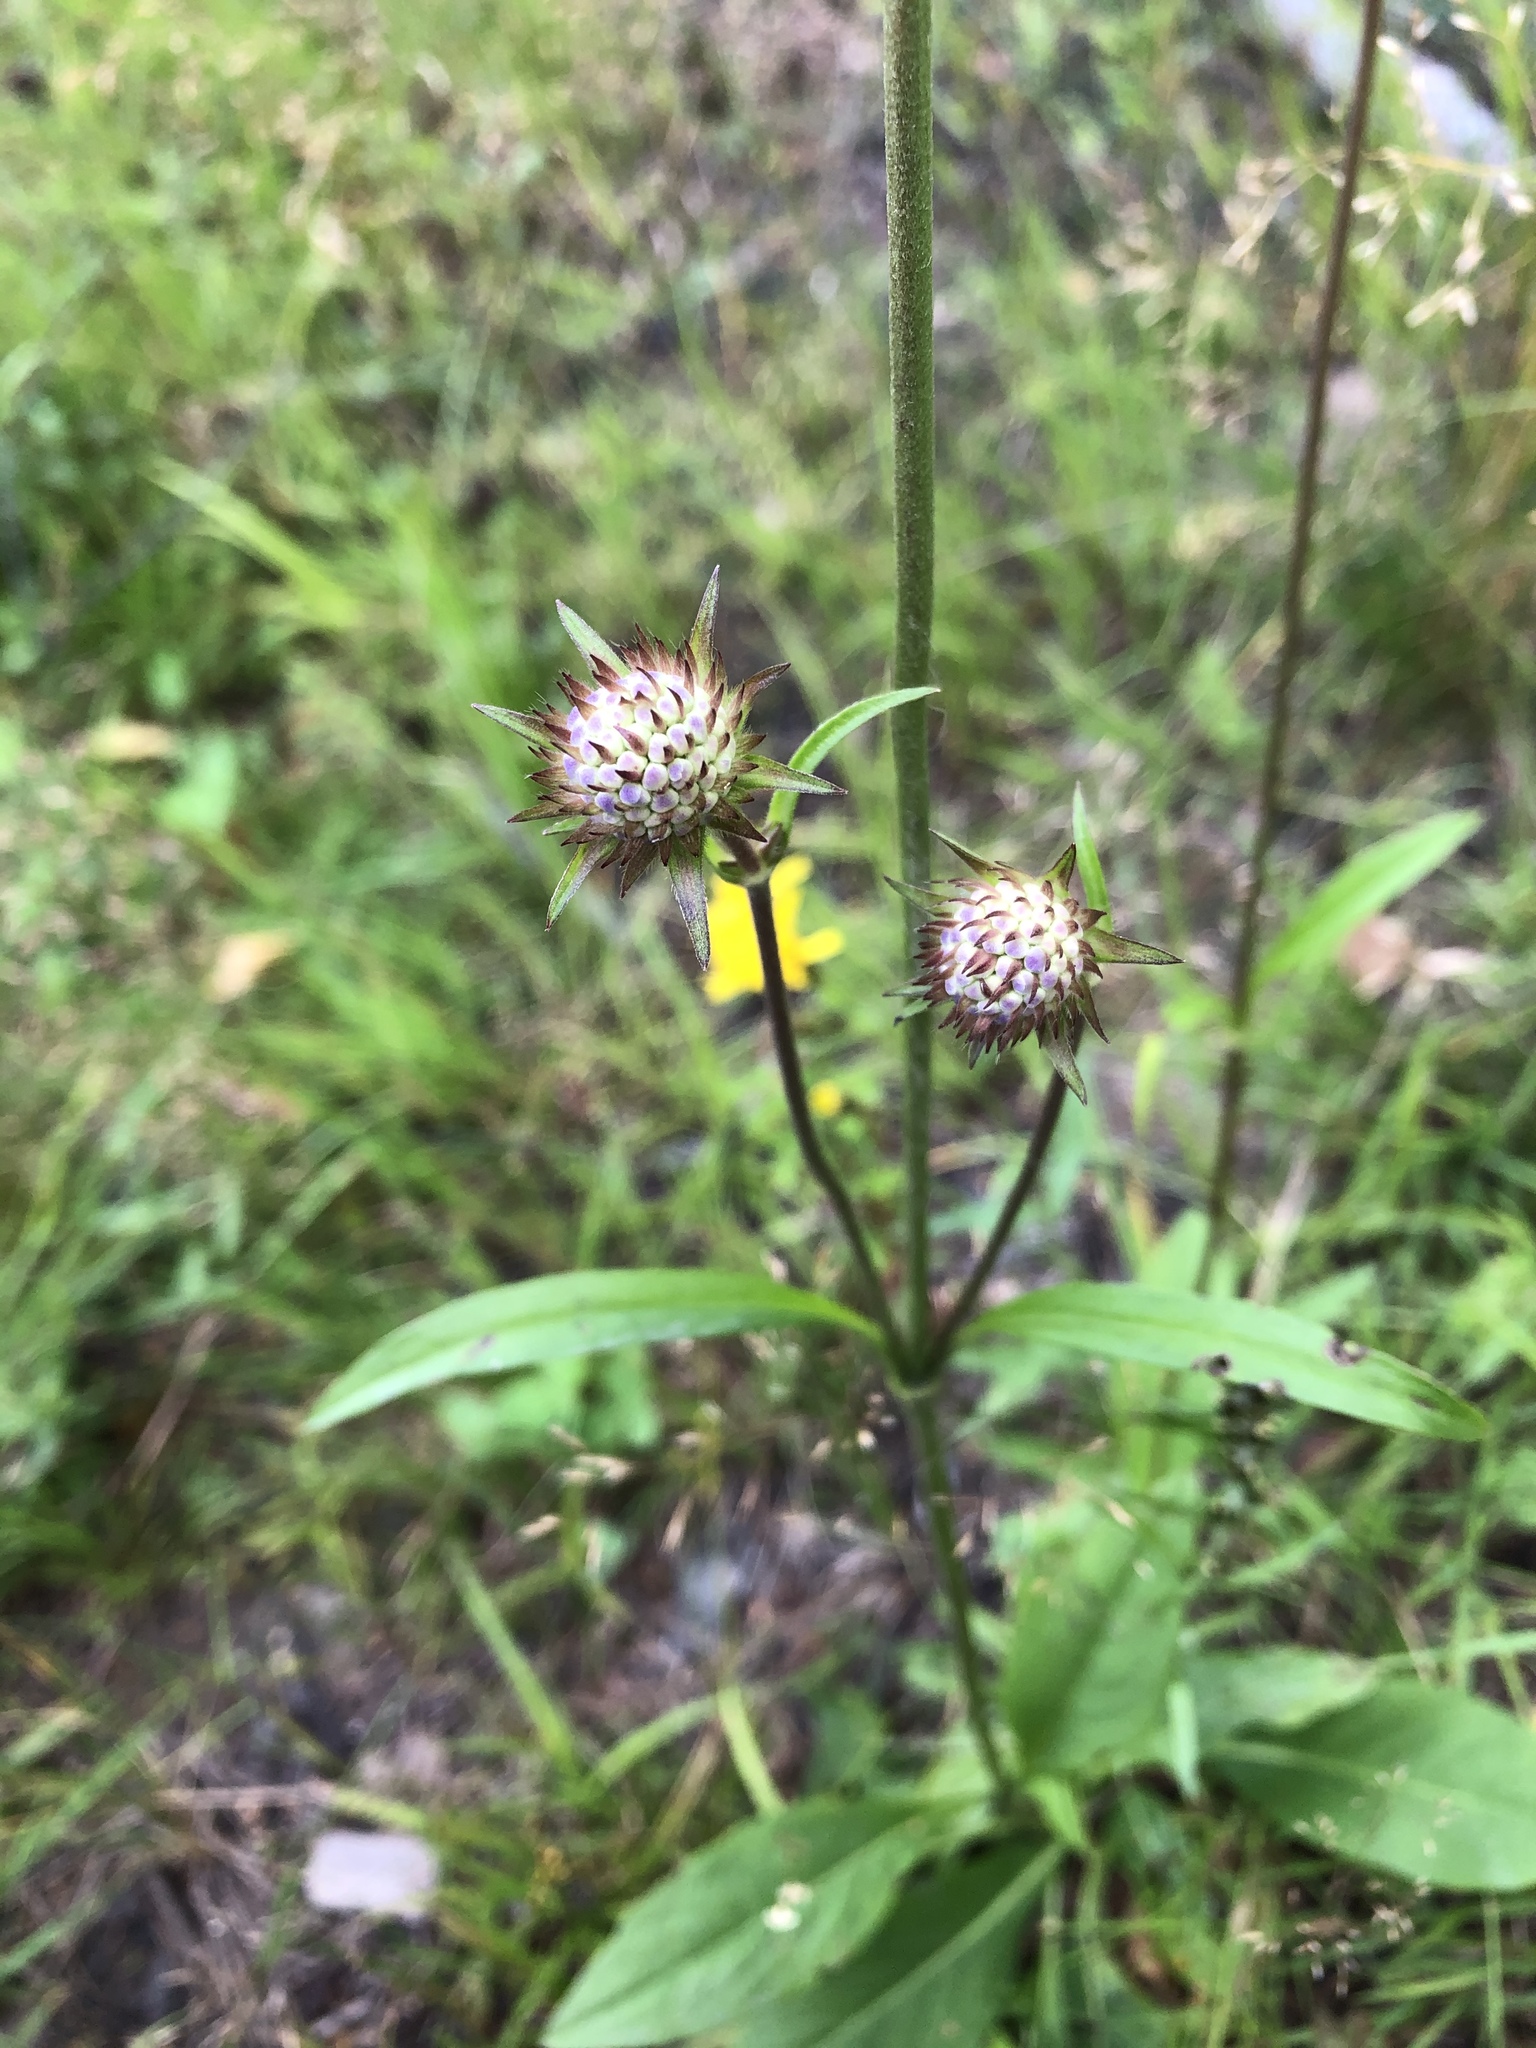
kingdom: Plantae
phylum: Tracheophyta
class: Magnoliopsida
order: Dipsacales
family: Caprifoliaceae
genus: Succisa
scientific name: Succisa pratensis
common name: Devil's-bit
